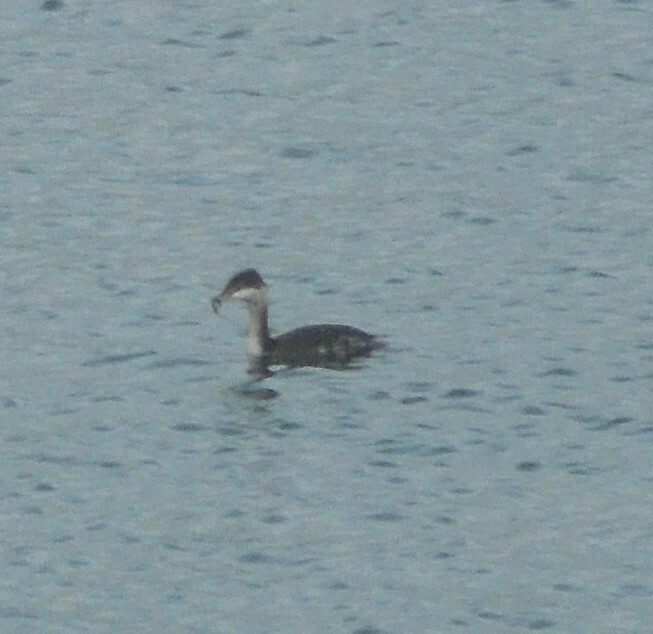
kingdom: Animalia
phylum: Chordata
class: Aves
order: Podicipediformes
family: Podicipedidae
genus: Podiceps
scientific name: Podiceps auritus
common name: Horned grebe
